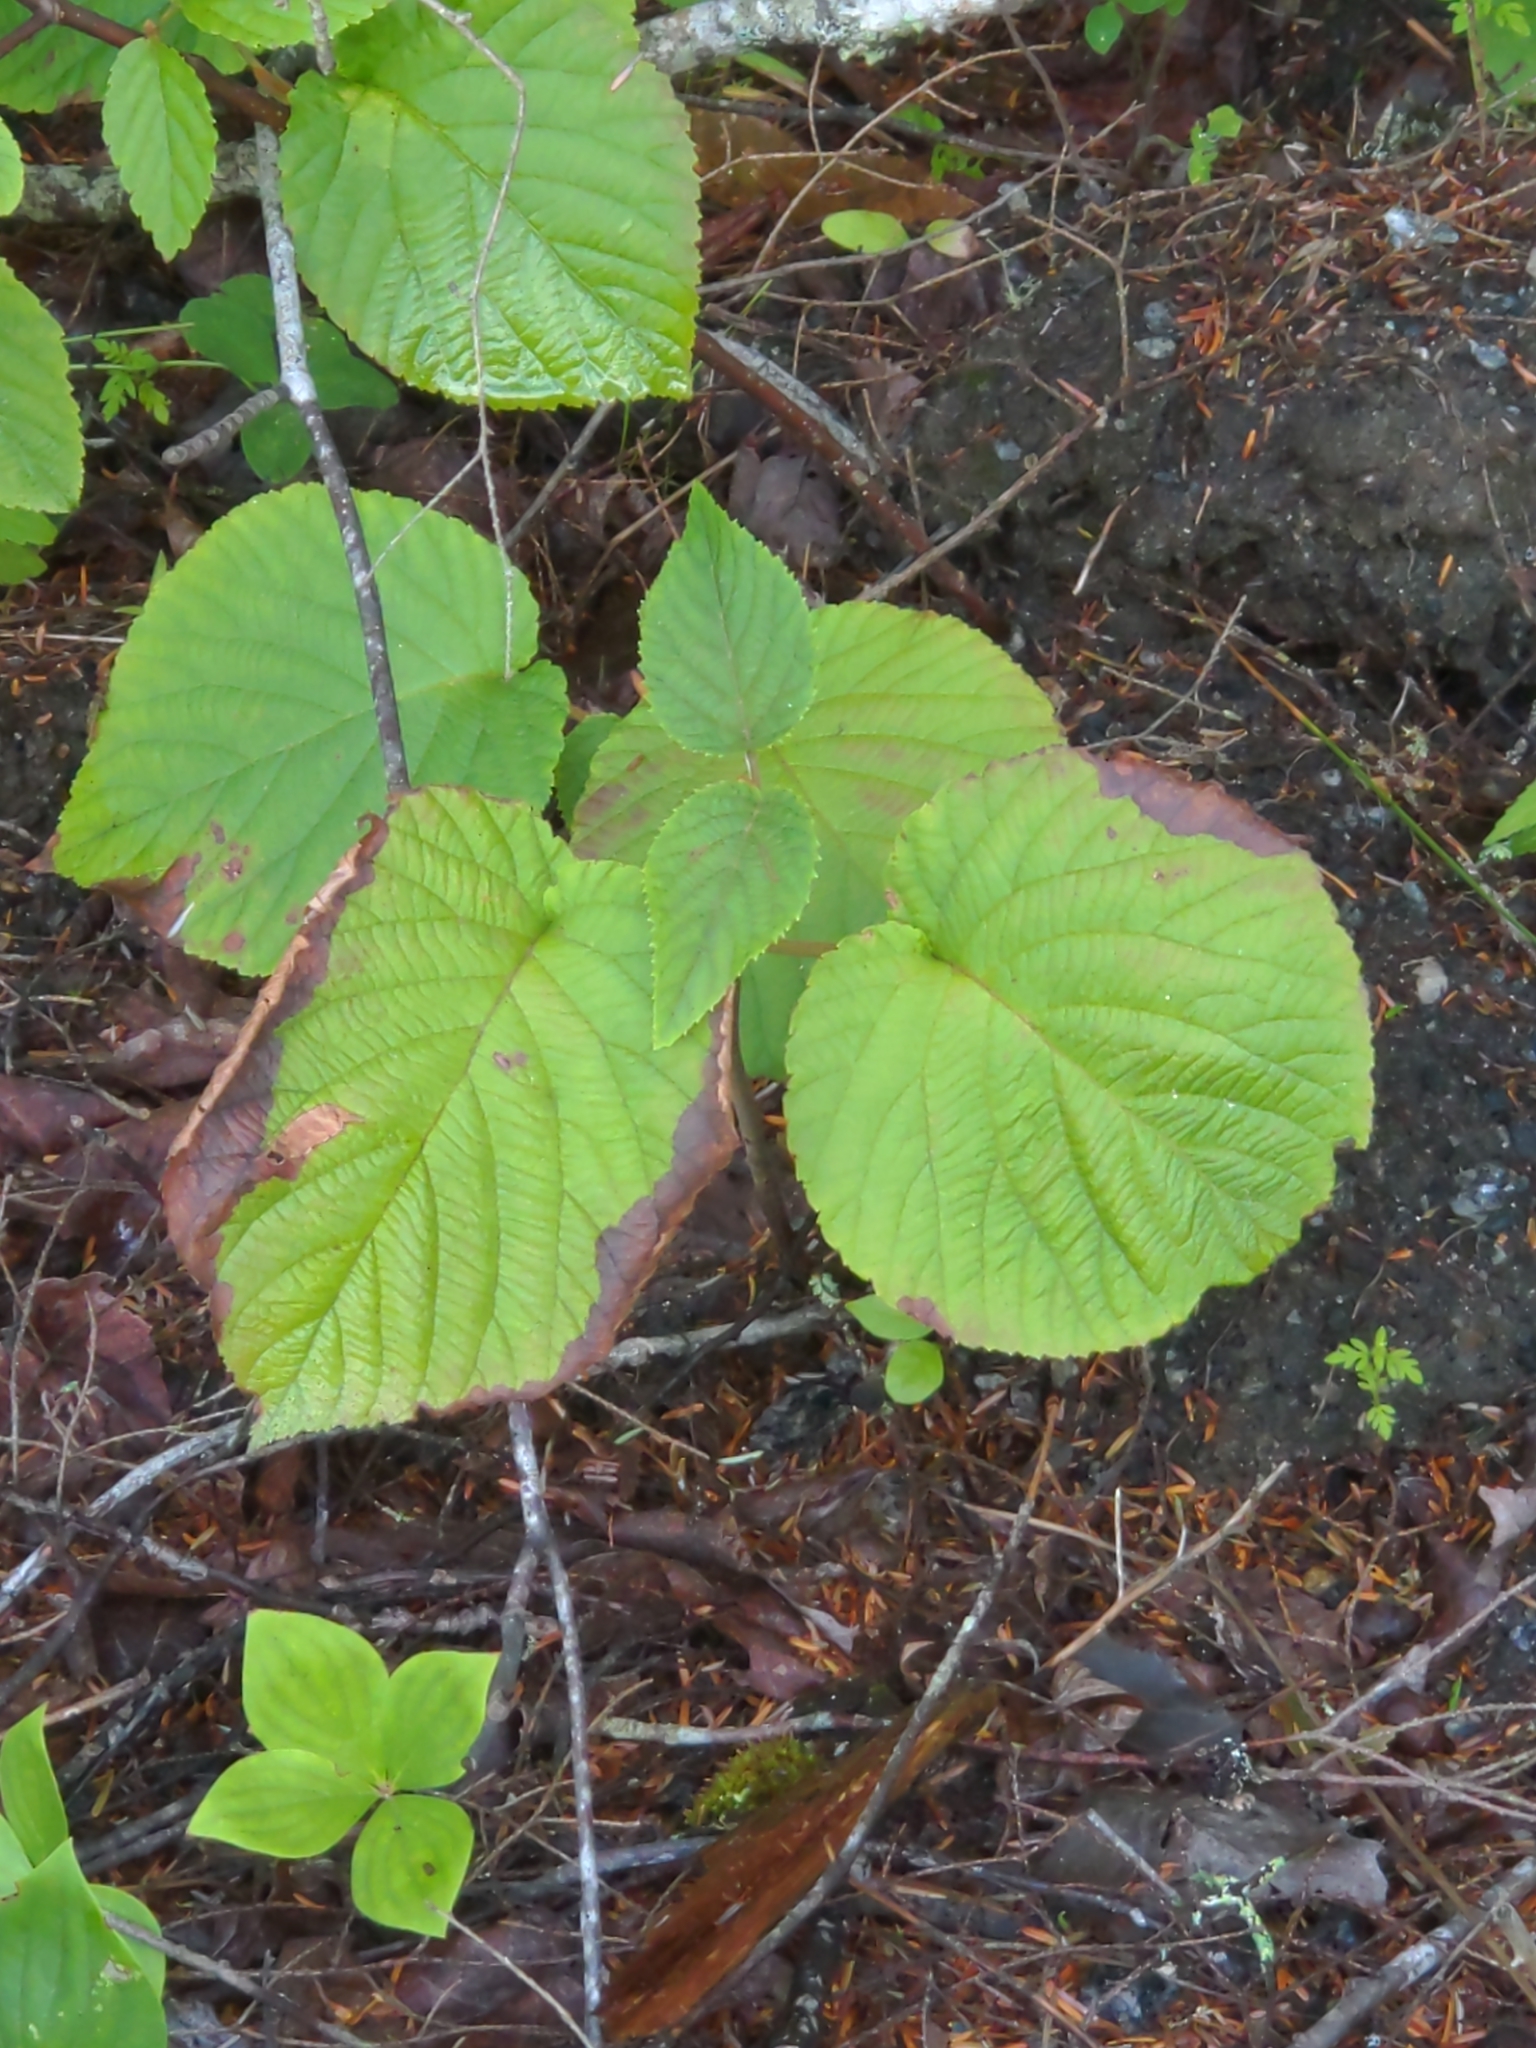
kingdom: Plantae
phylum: Tracheophyta
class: Magnoliopsida
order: Dipsacales
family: Viburnaceae
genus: Viburnum
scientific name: Viburnum lantanoides
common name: Hobblebush
